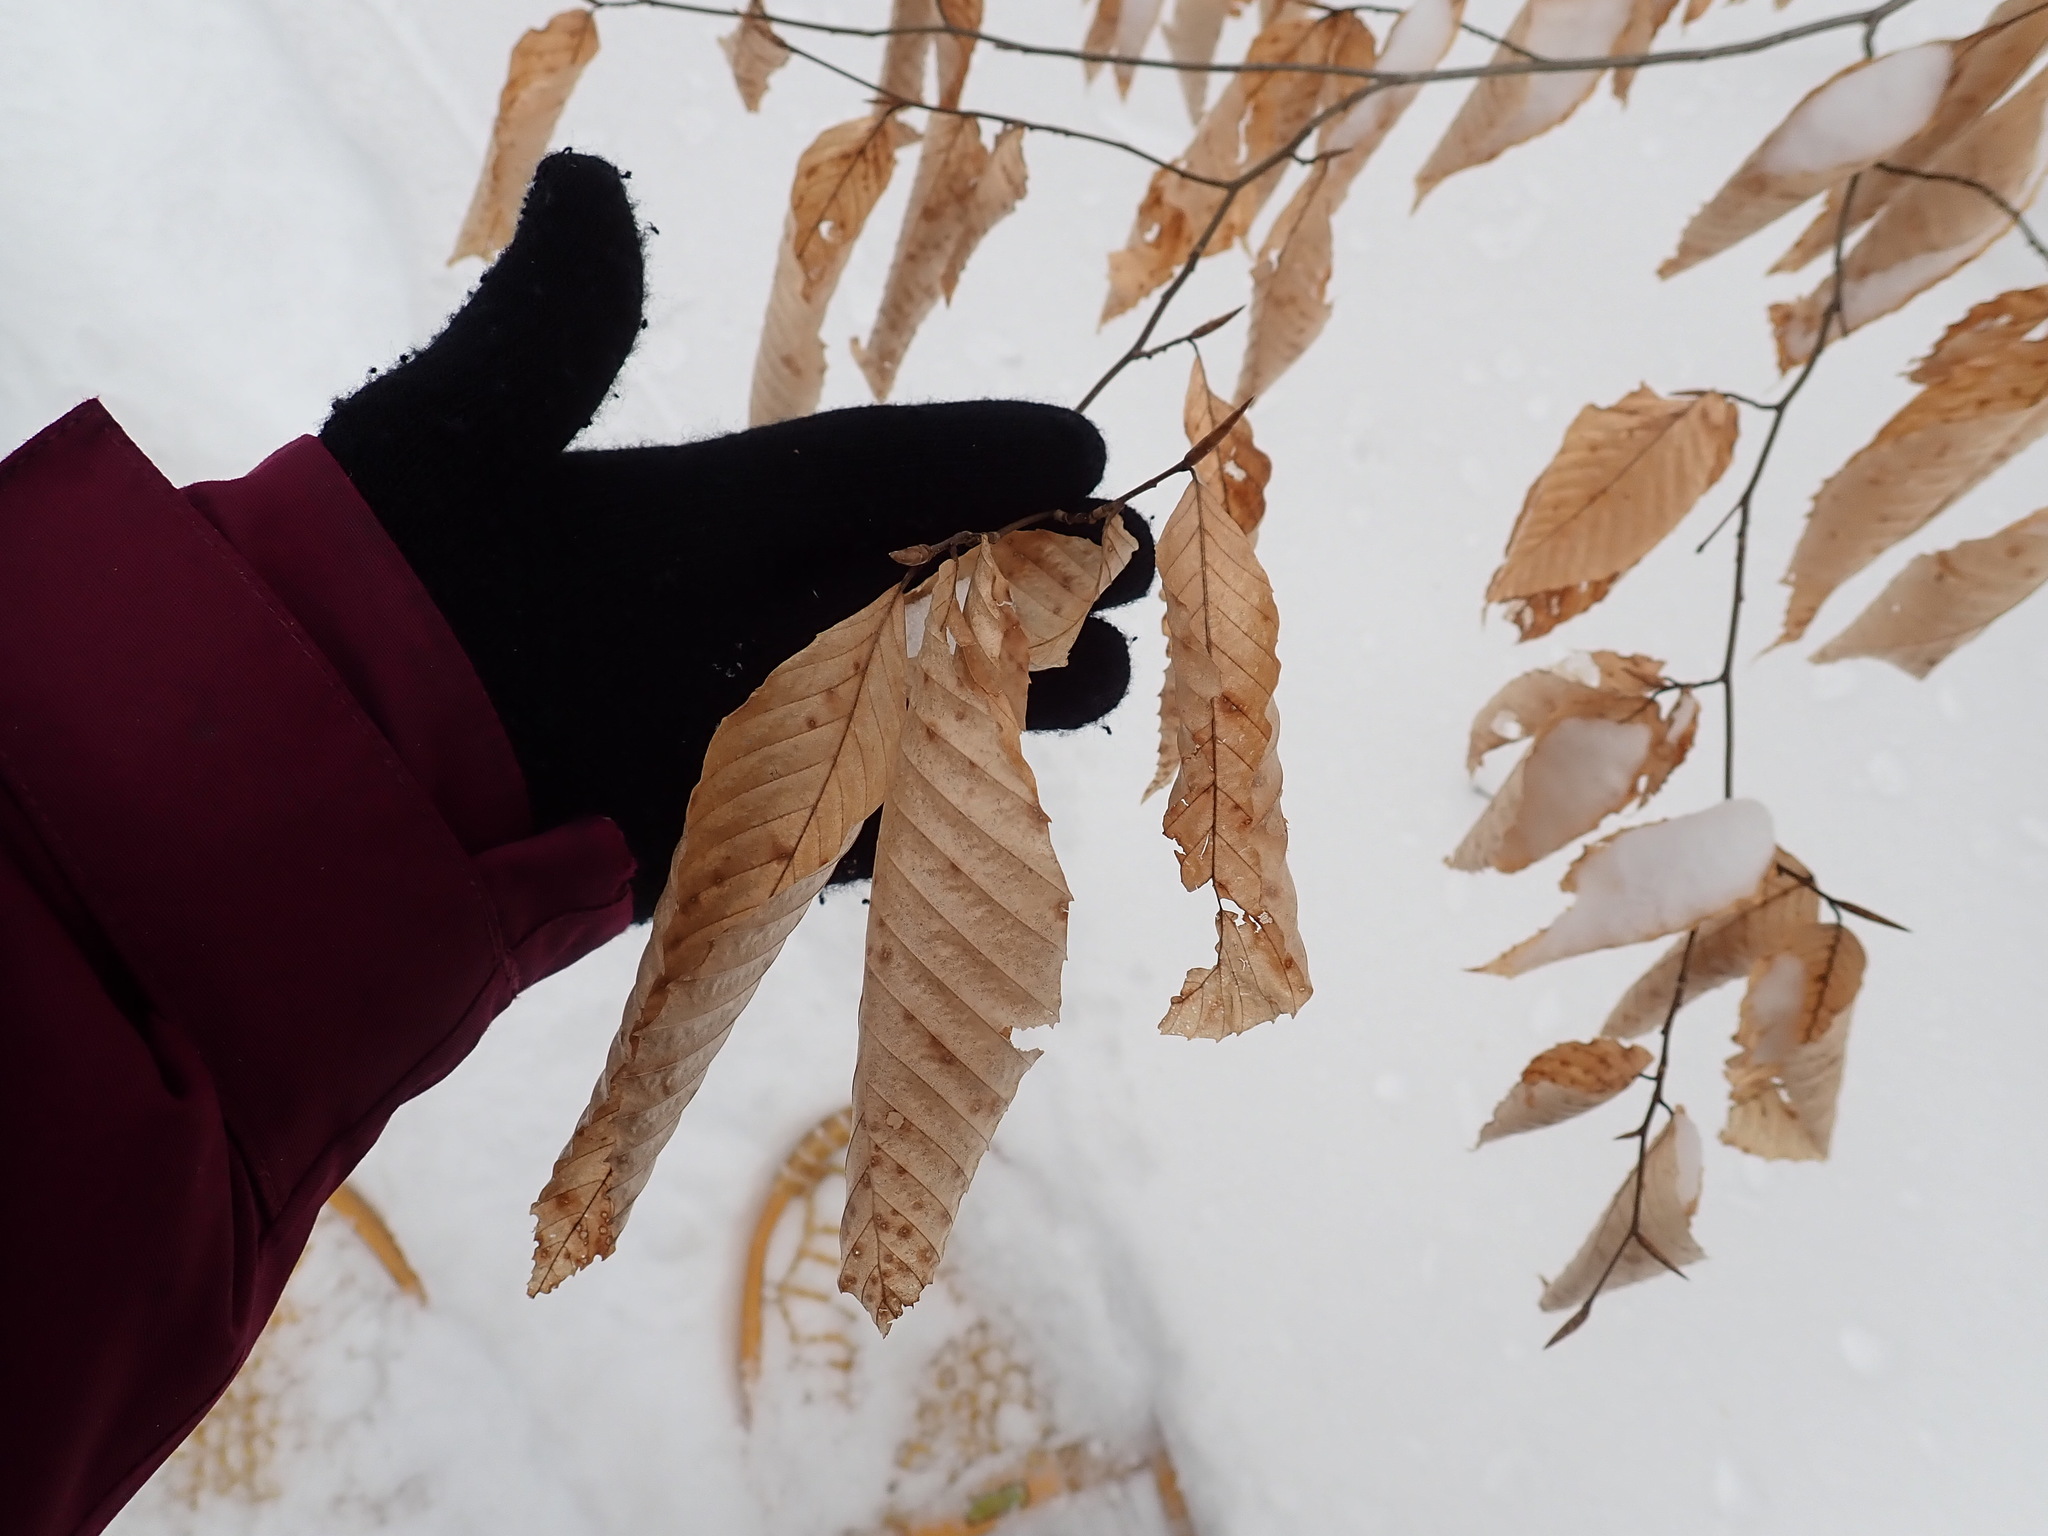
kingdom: Plantae
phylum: Tracheophyta
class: Magnoliopsida
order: Fagales
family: Fagaceae
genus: Fagus
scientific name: Fagus grandifolia
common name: American beech
